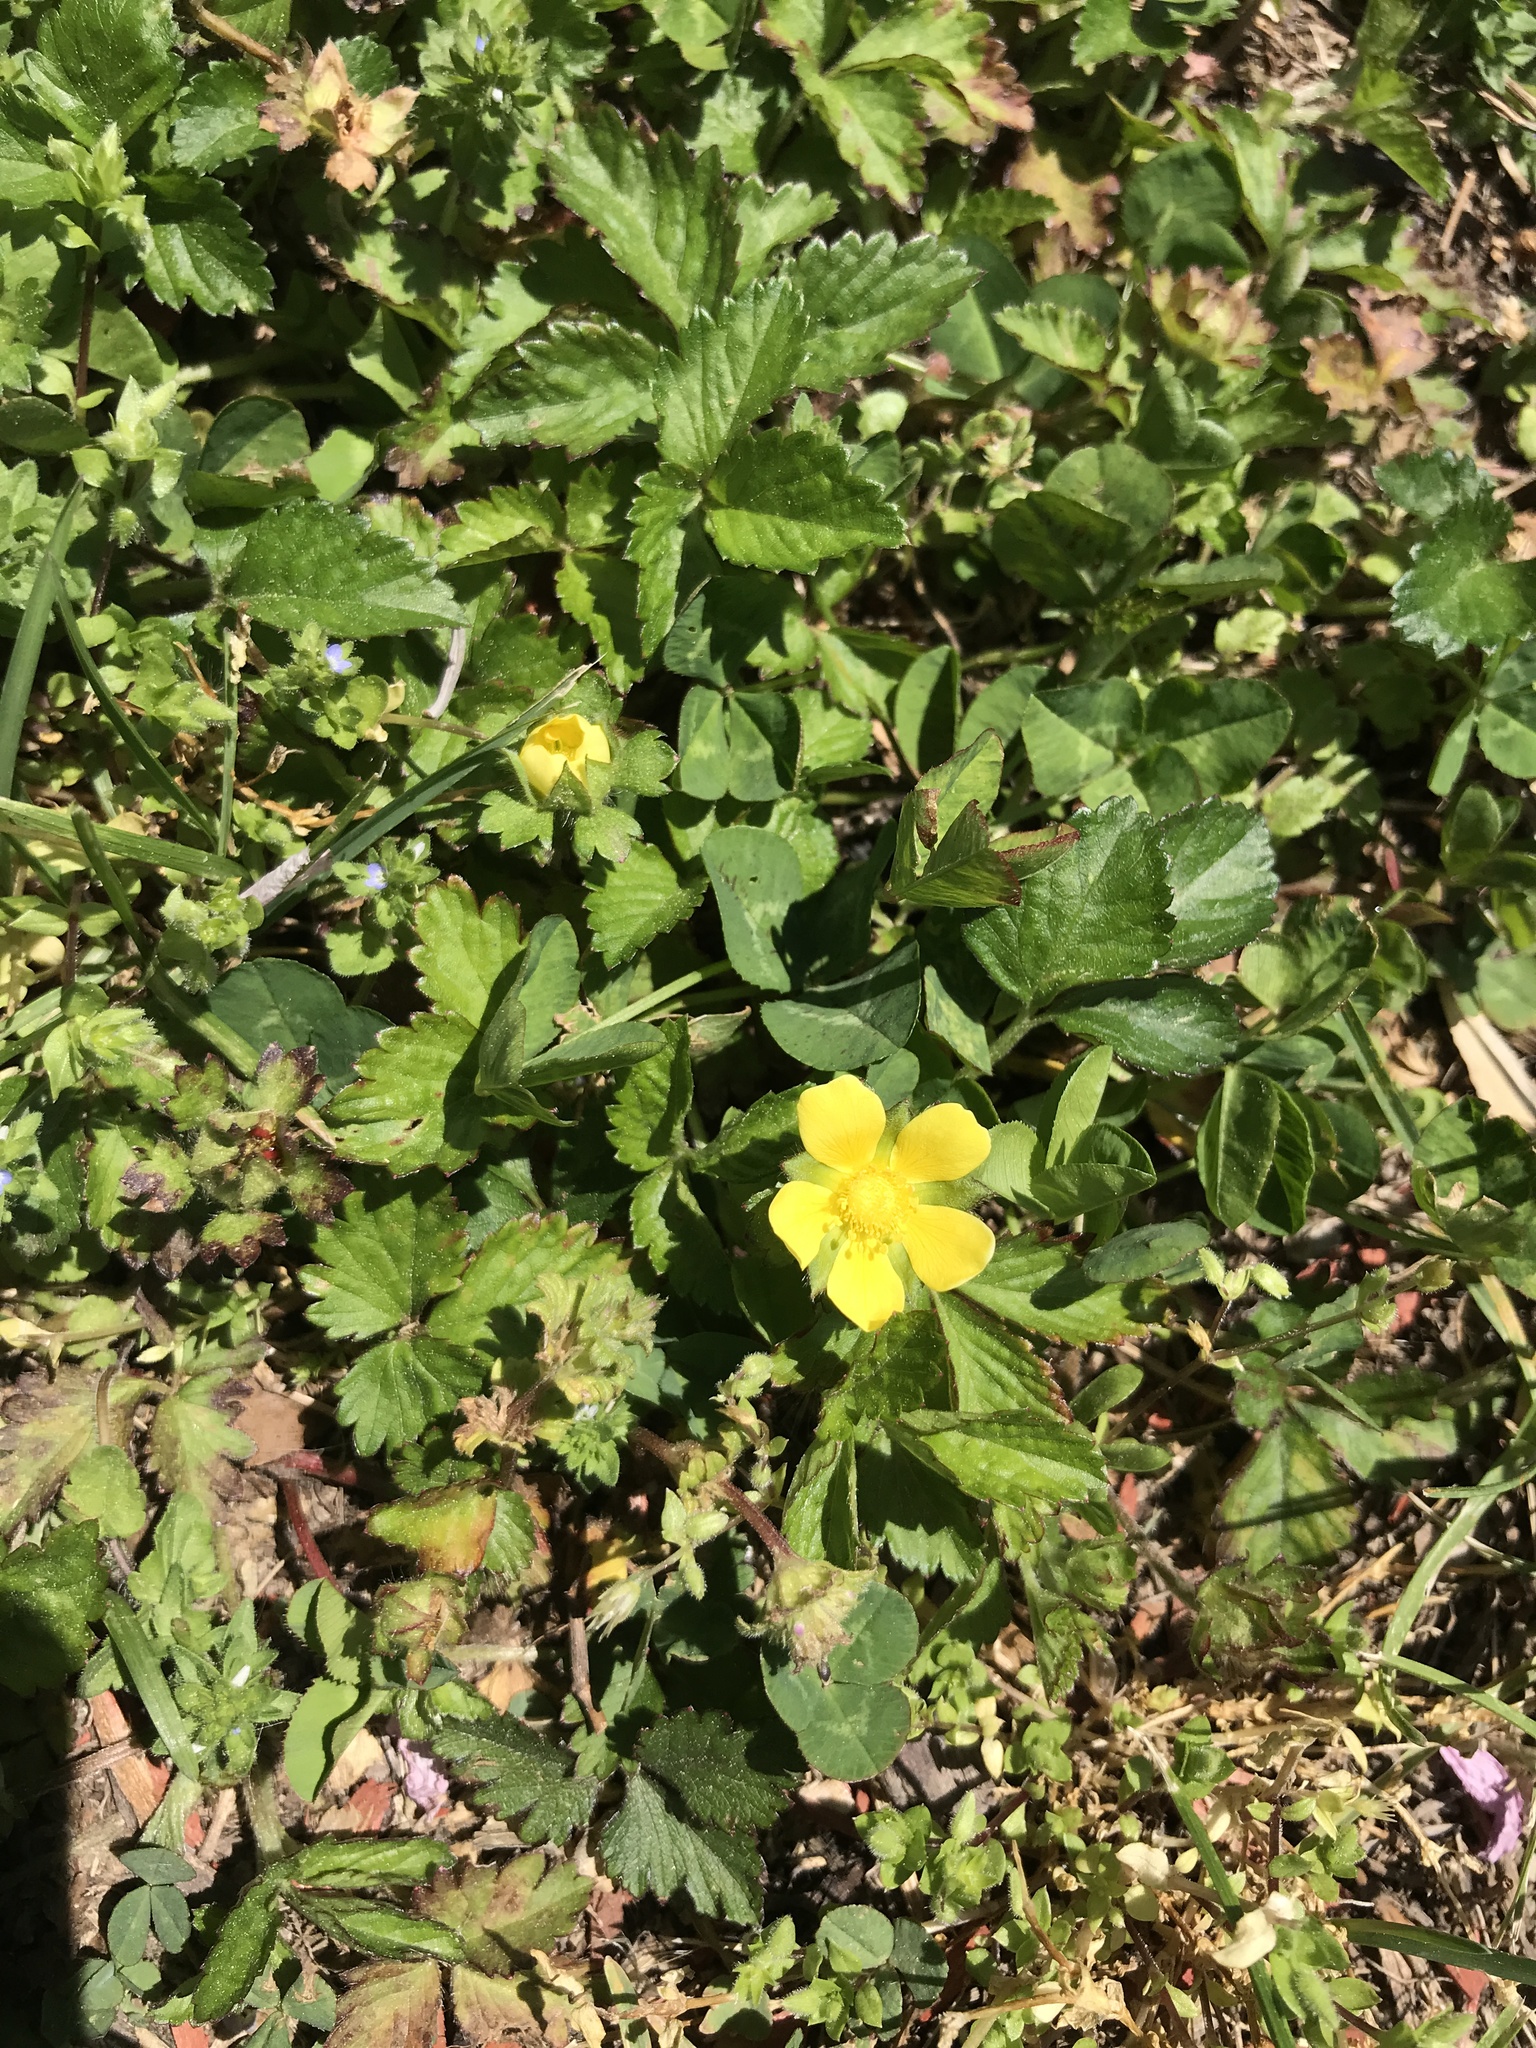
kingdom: Plantae
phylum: Tracheophyta
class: Magnoliopsida
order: Rosales
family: Rosaceae
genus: Potentilla
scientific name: Potentilla indica
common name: Yellow-flowered strawberry
